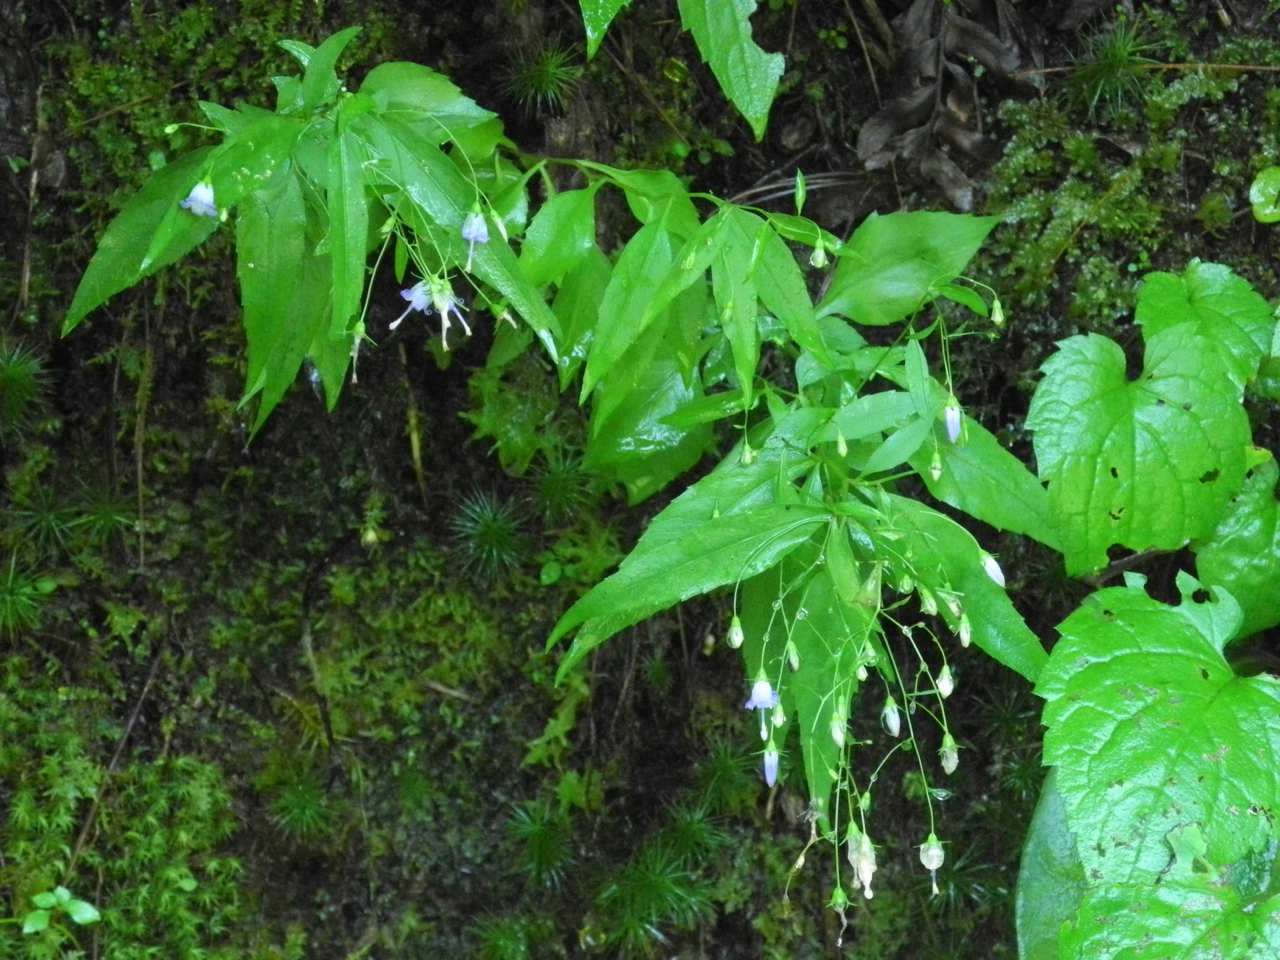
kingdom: Plantae
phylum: Tracheophyta
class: Magnoliopsida
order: Asterales
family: Campanulaceae
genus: Campanula
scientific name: Campanula divaricata
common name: Appalachian bellflower
